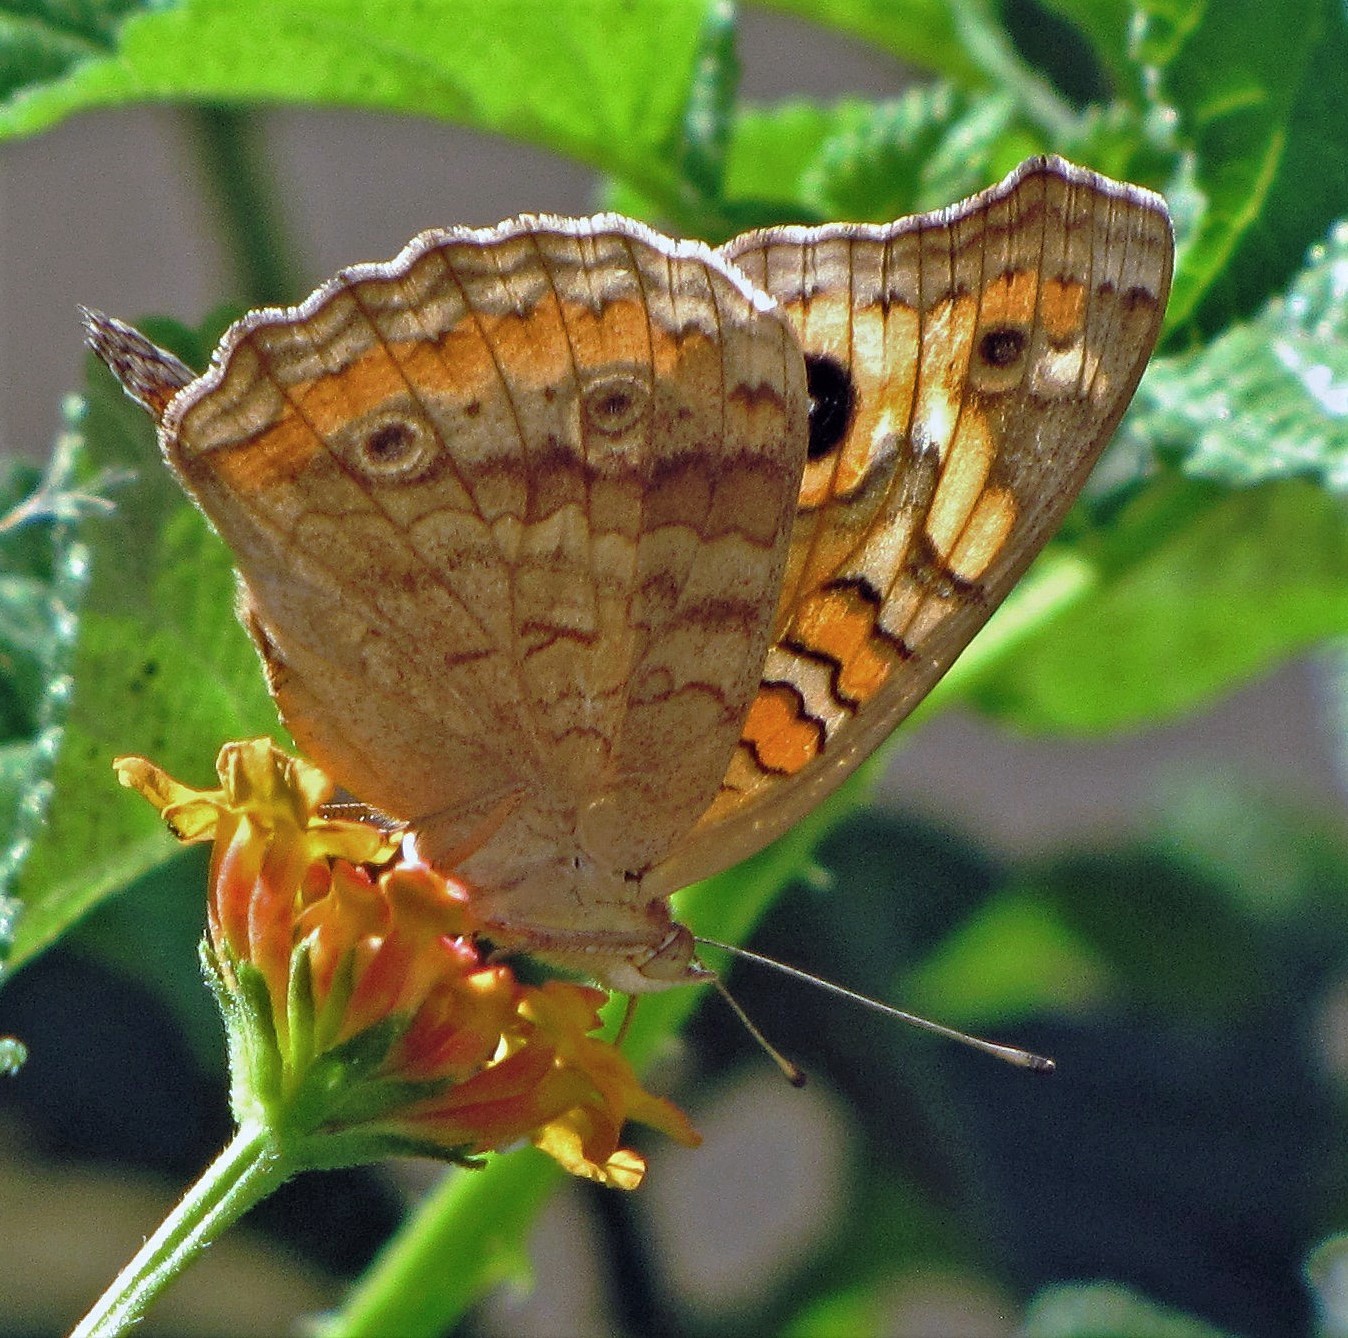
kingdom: Animalia
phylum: Arthropoda
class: Insecta
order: Lepidoptera
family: Nymphalidae
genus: Junonia
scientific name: Junonia lavinia
